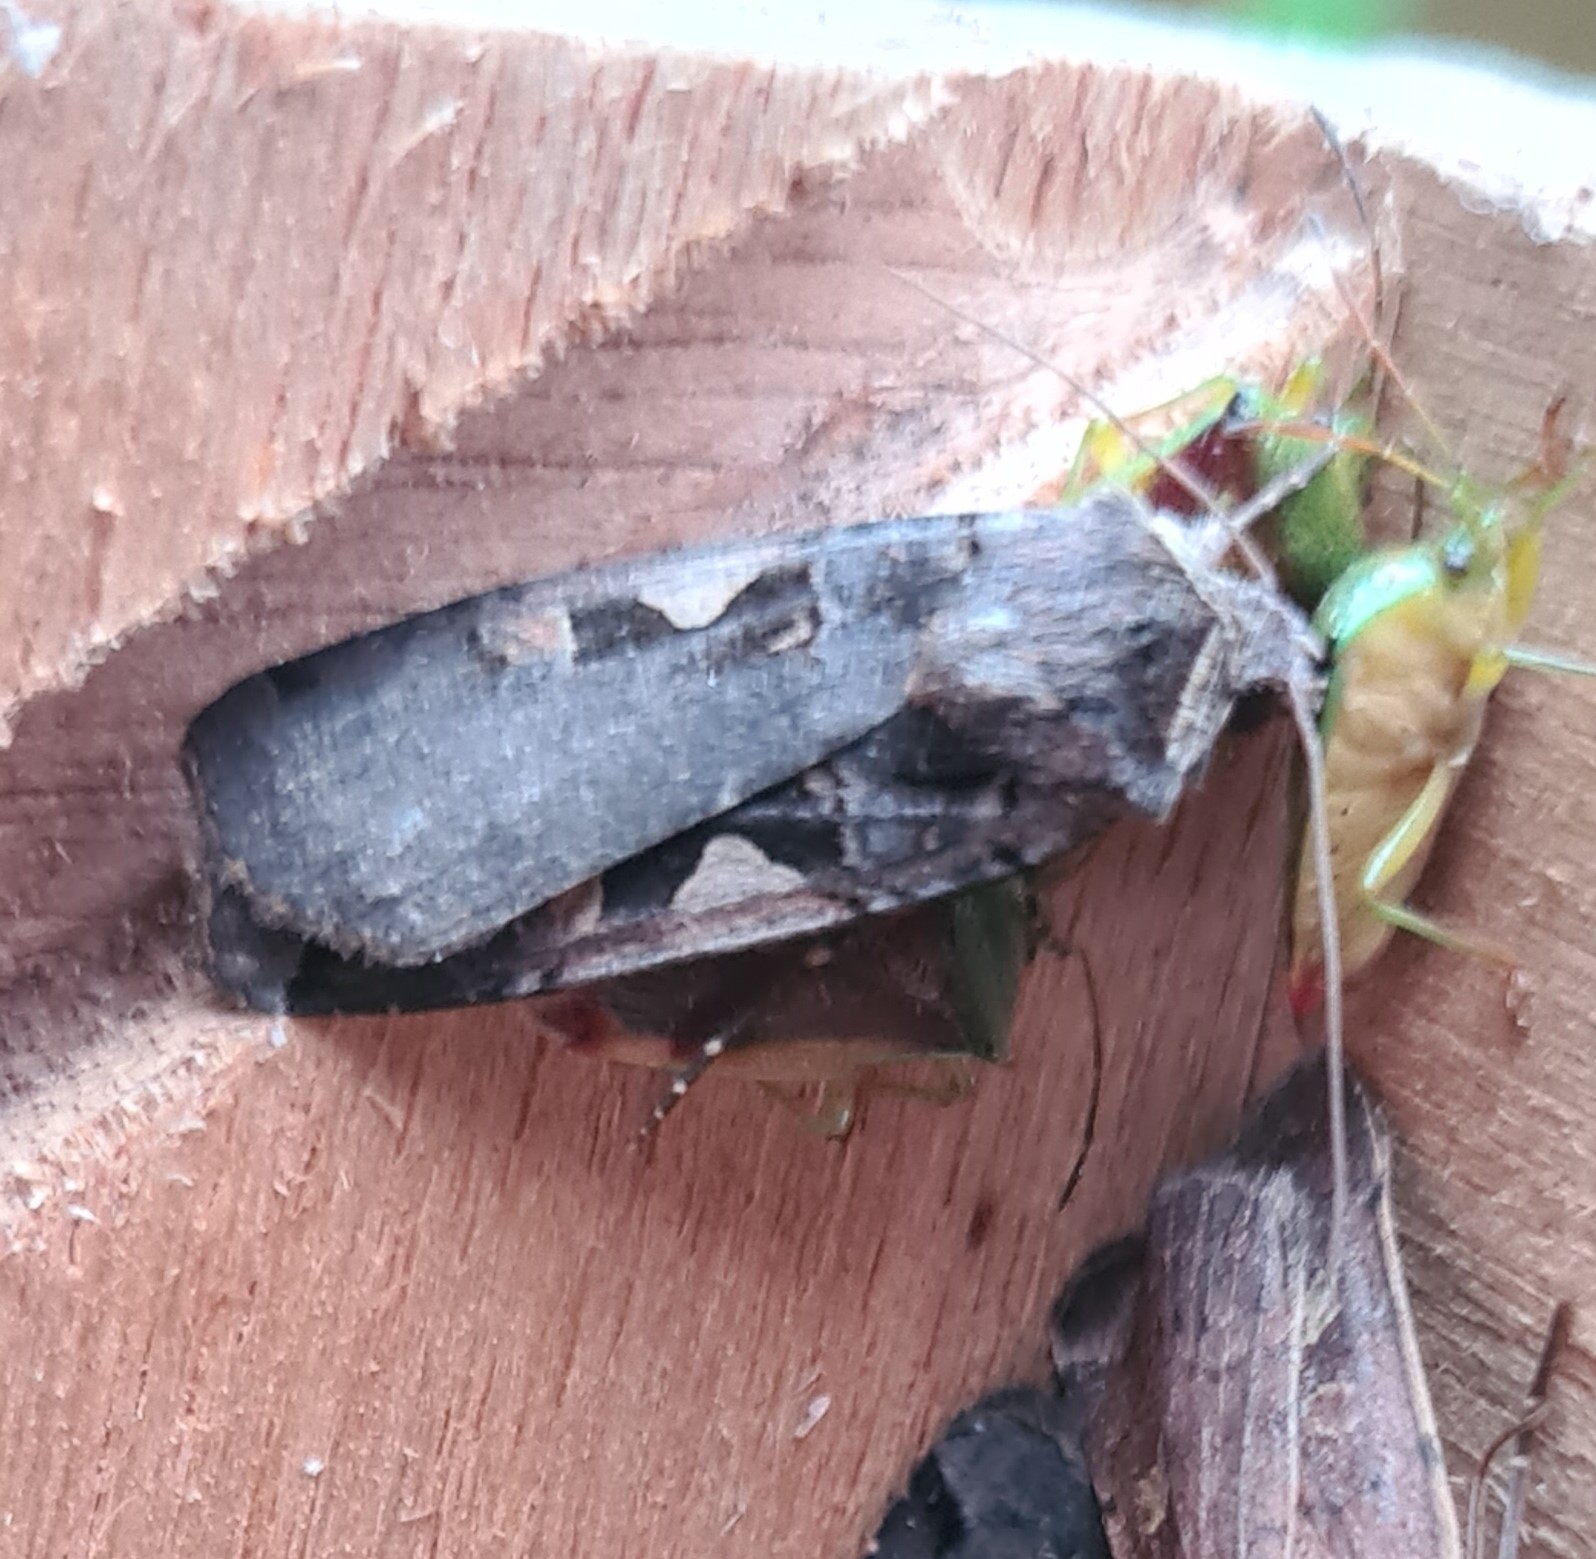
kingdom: Animalia
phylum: Arthropoda
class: Insecta
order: Lepidoptera
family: Noctuidae
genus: Xestia
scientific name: Xestia c-nigrum
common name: Setaceous hebrew character
